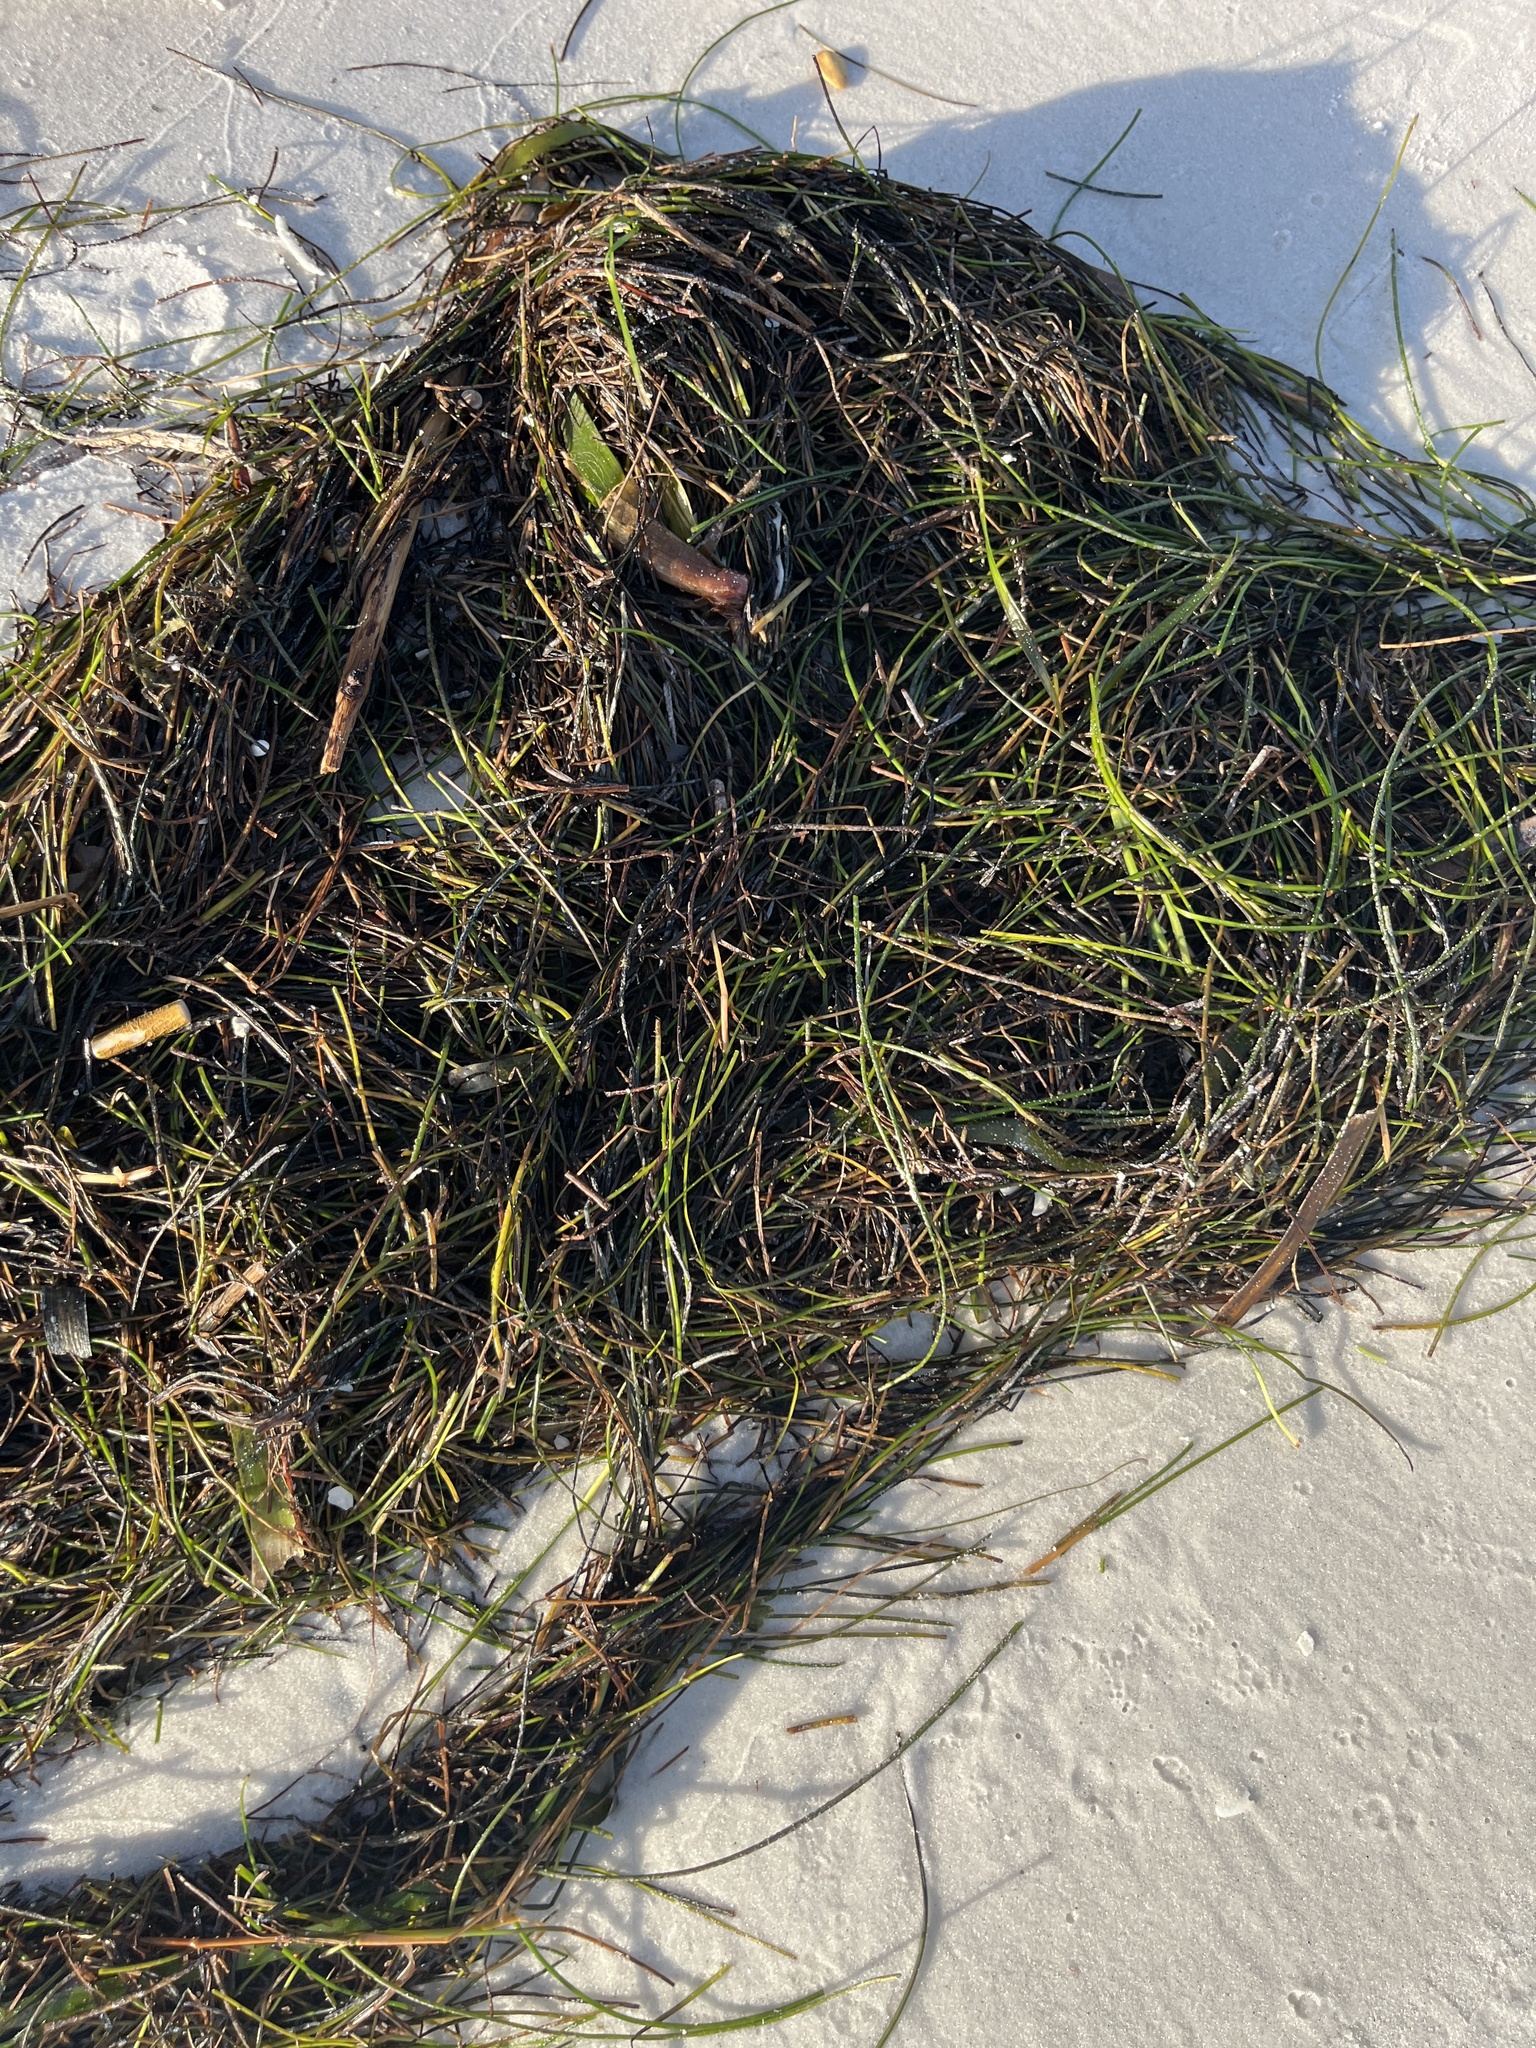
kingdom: Plantae
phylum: Tracheophyta
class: Liliopsida
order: Alismatales
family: Cymodoceaceae
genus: Syringodium
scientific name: Syringodium filiforme
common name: Manatee grass
